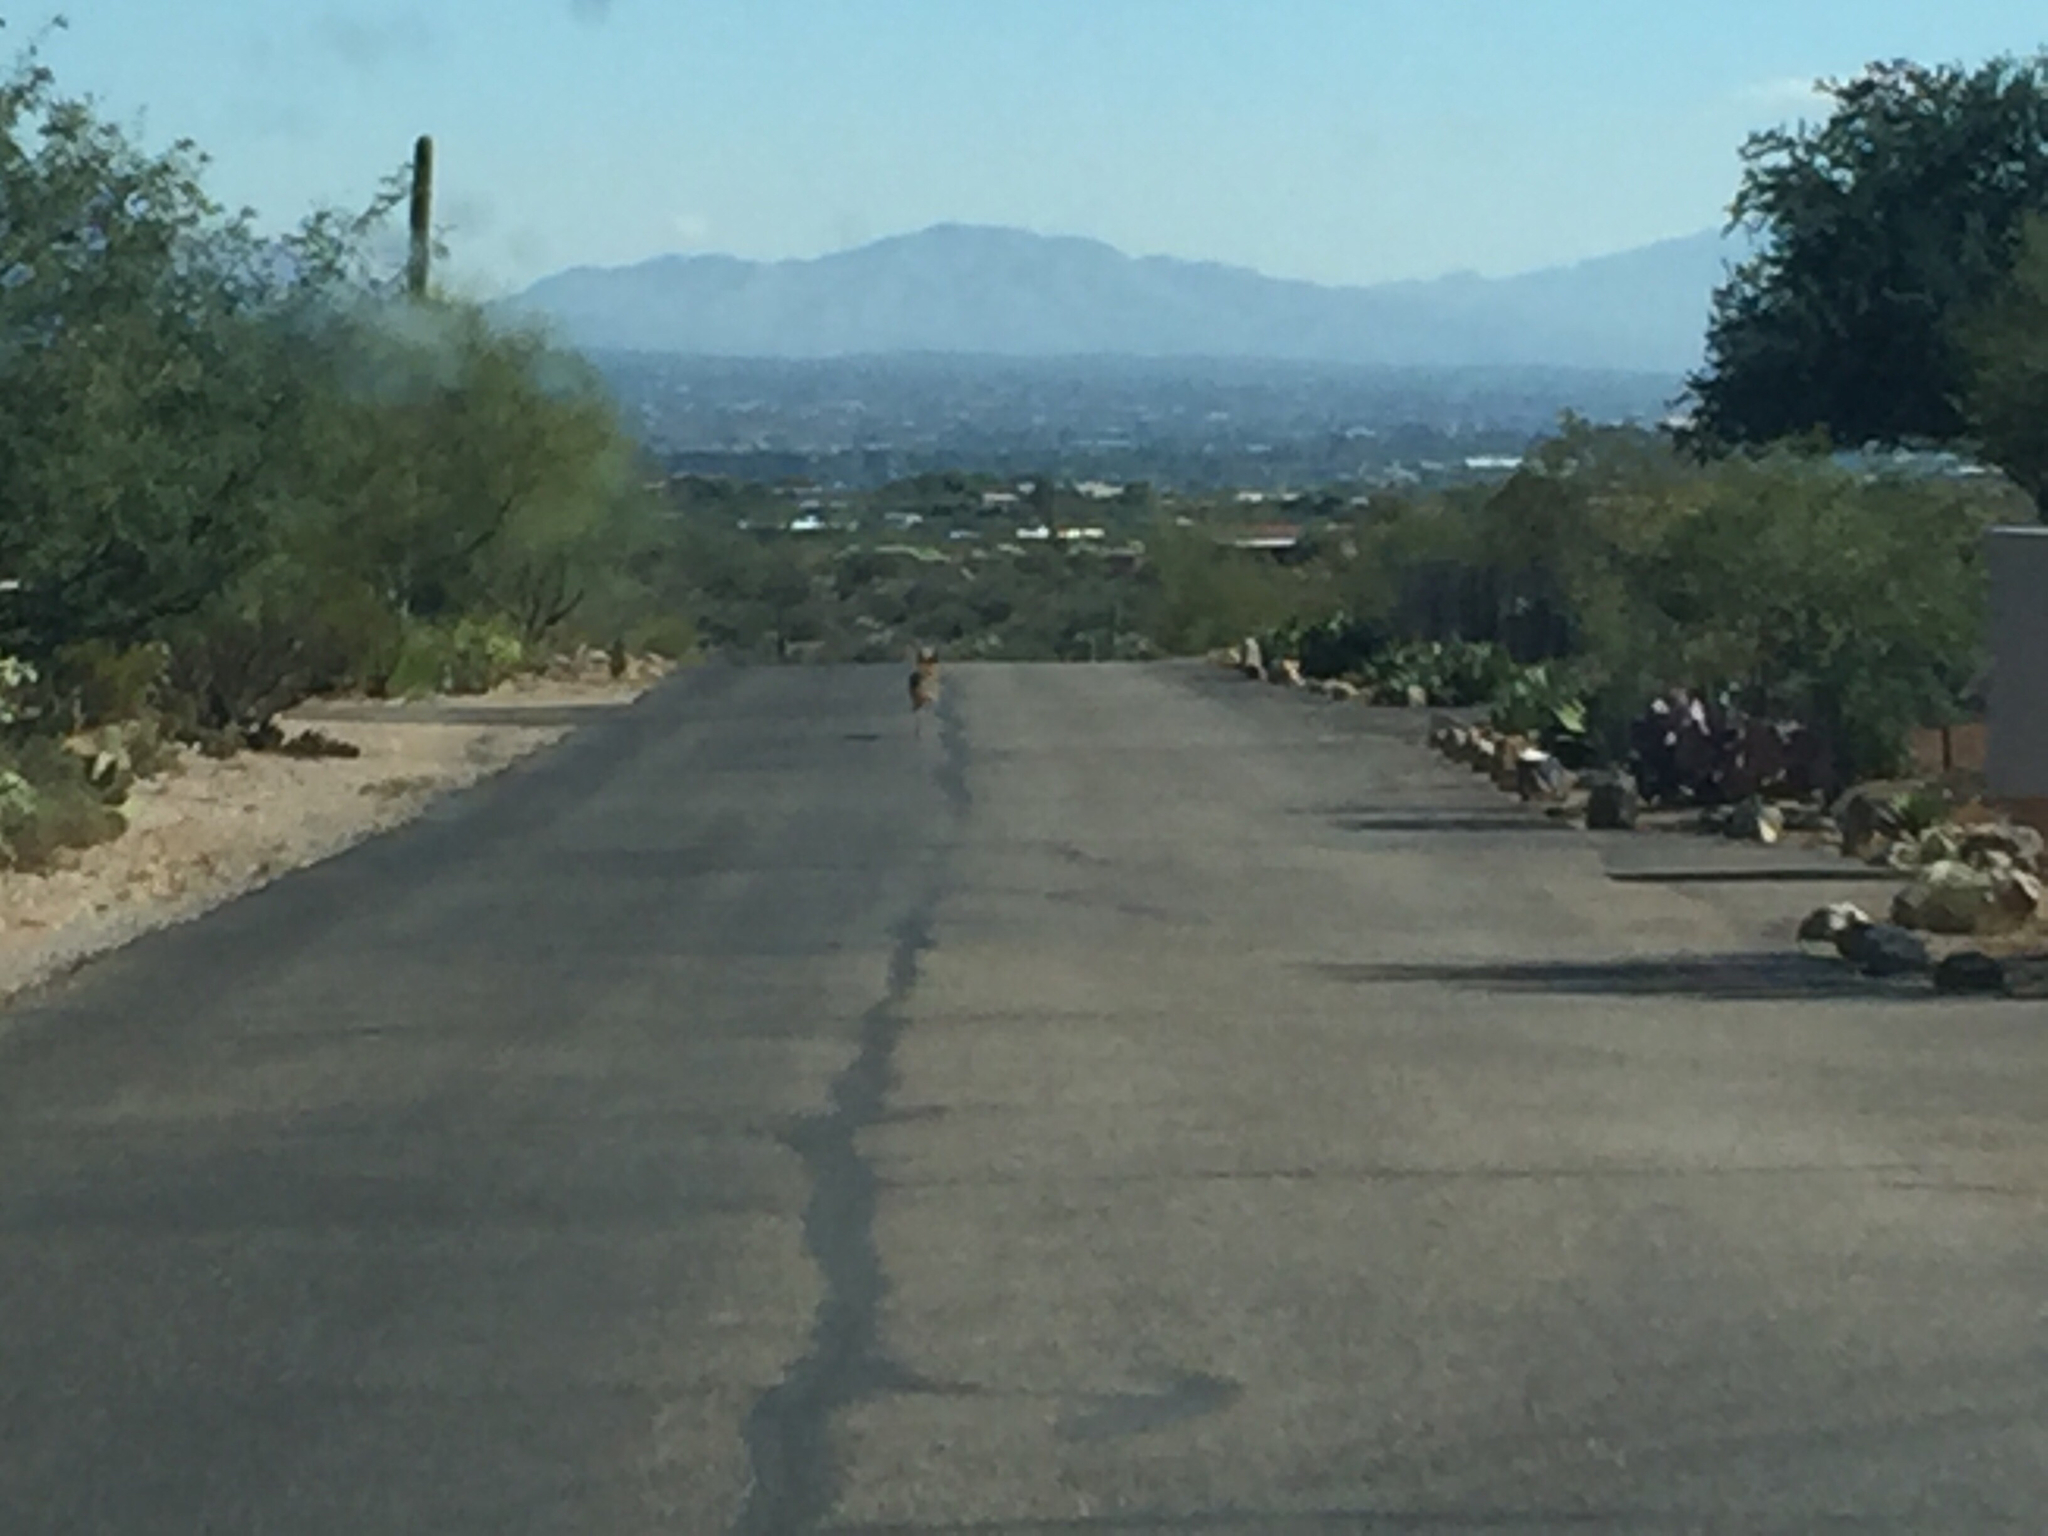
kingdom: Animalia
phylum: Chordata
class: Mammalia
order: Carnivora
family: Canidae
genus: Canis
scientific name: Canis latrans
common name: Coyote
